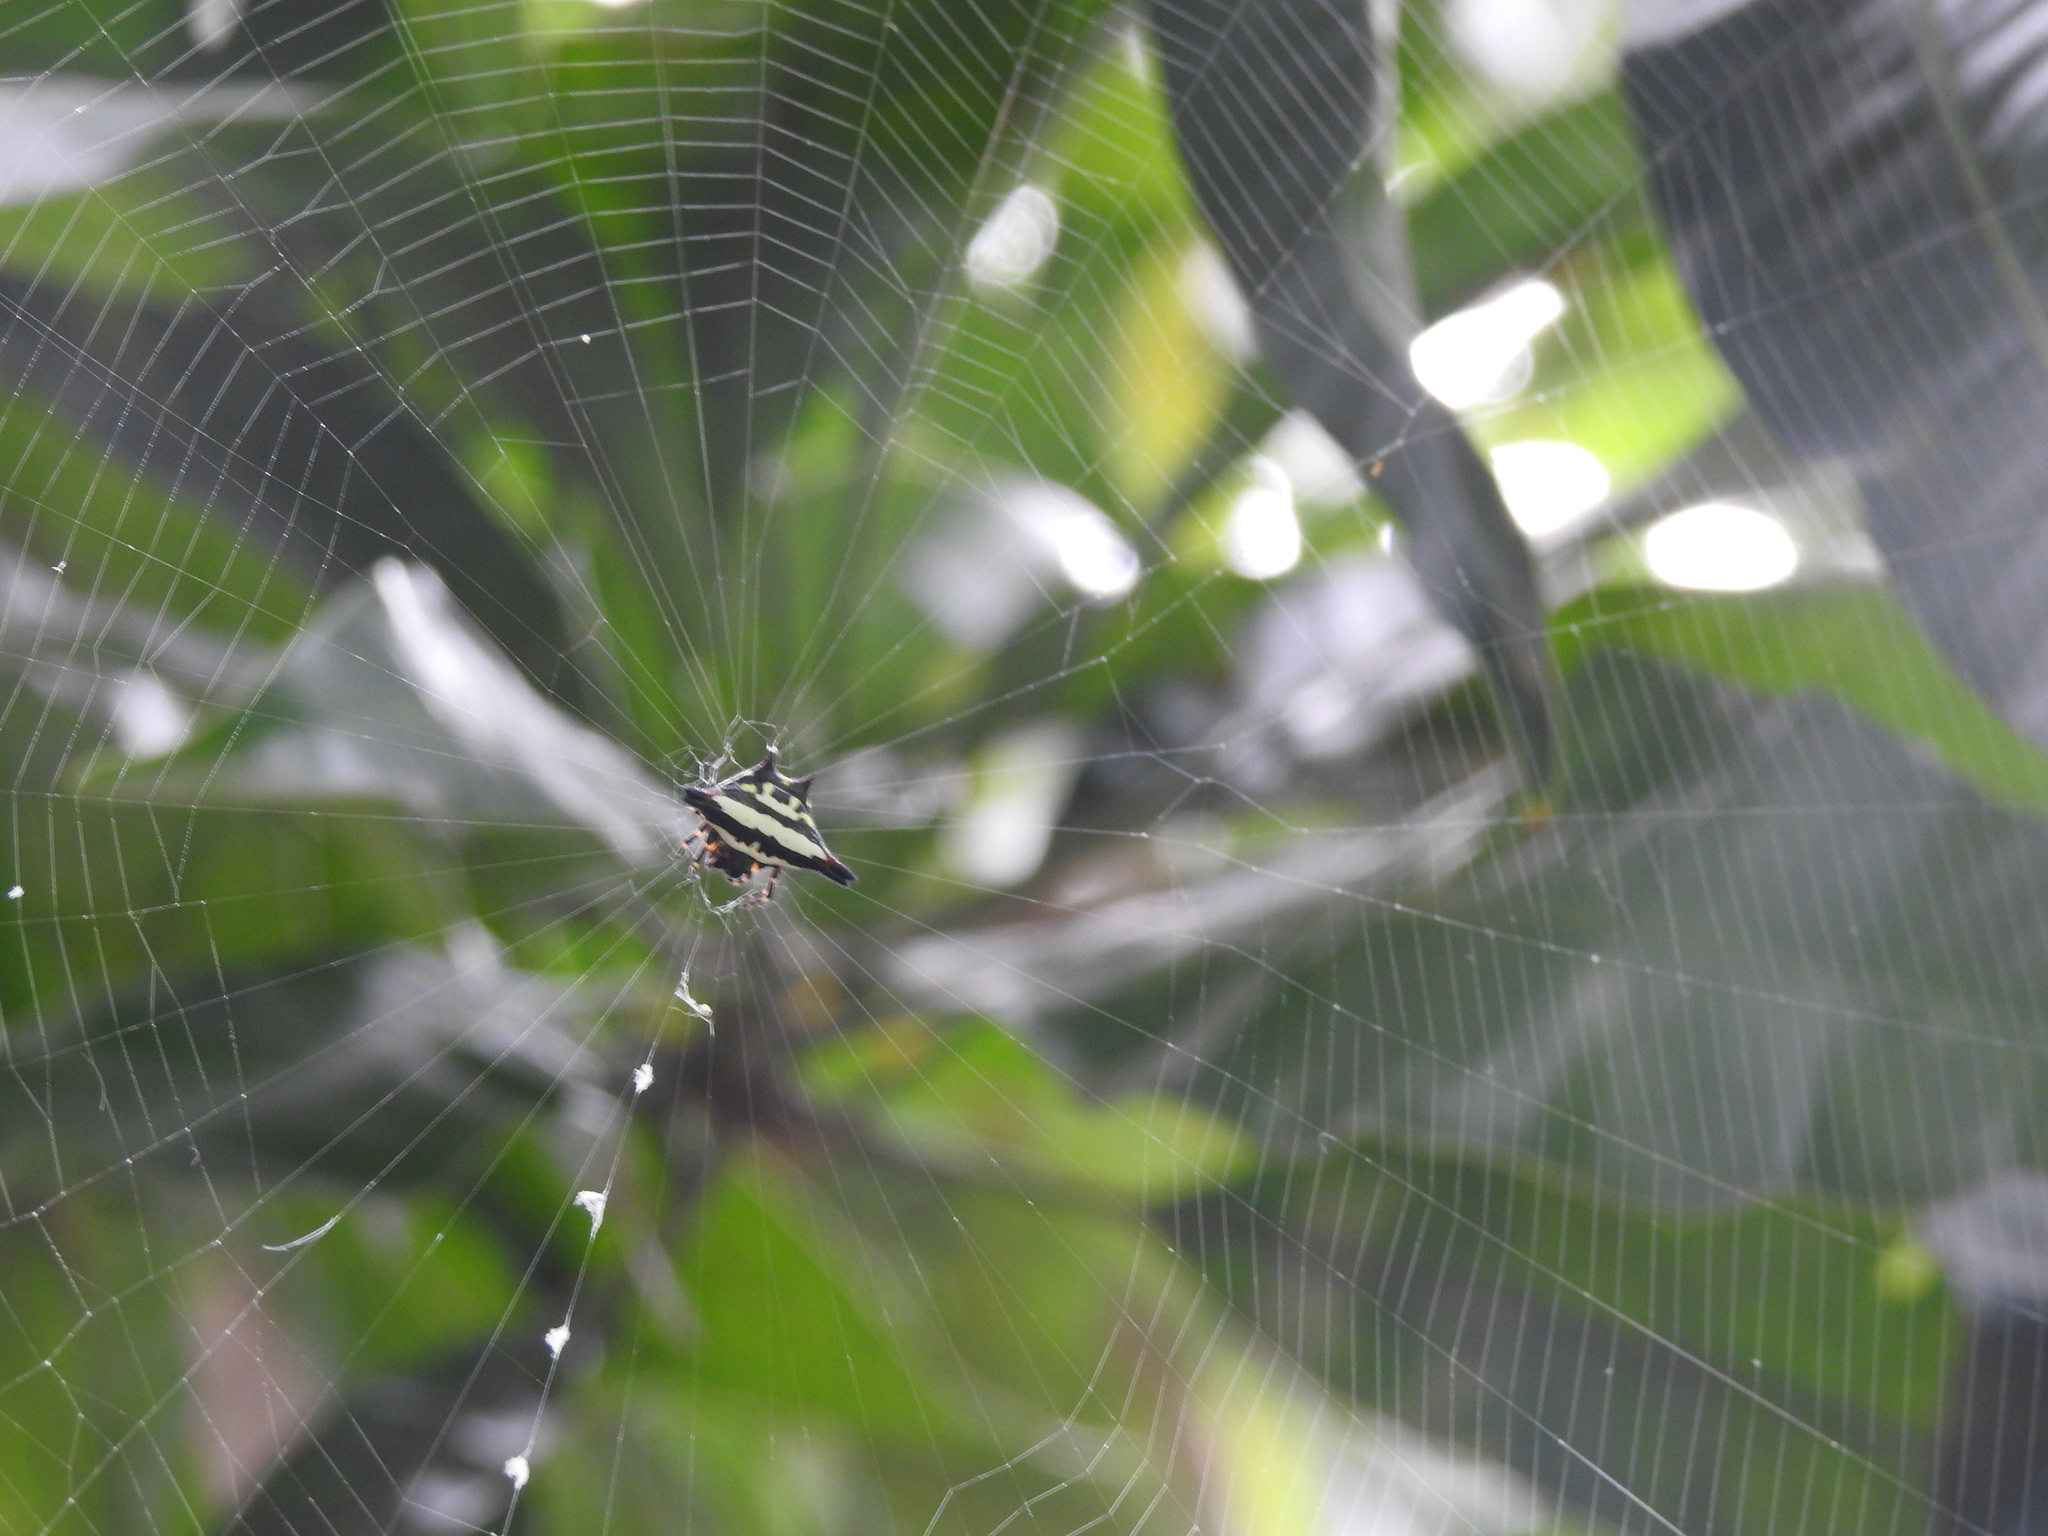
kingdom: Animalia
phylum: Arthropoda
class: Arachnida
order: Araneae
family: Araneidae
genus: Gasteracantha
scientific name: Gasteracantha geminata
